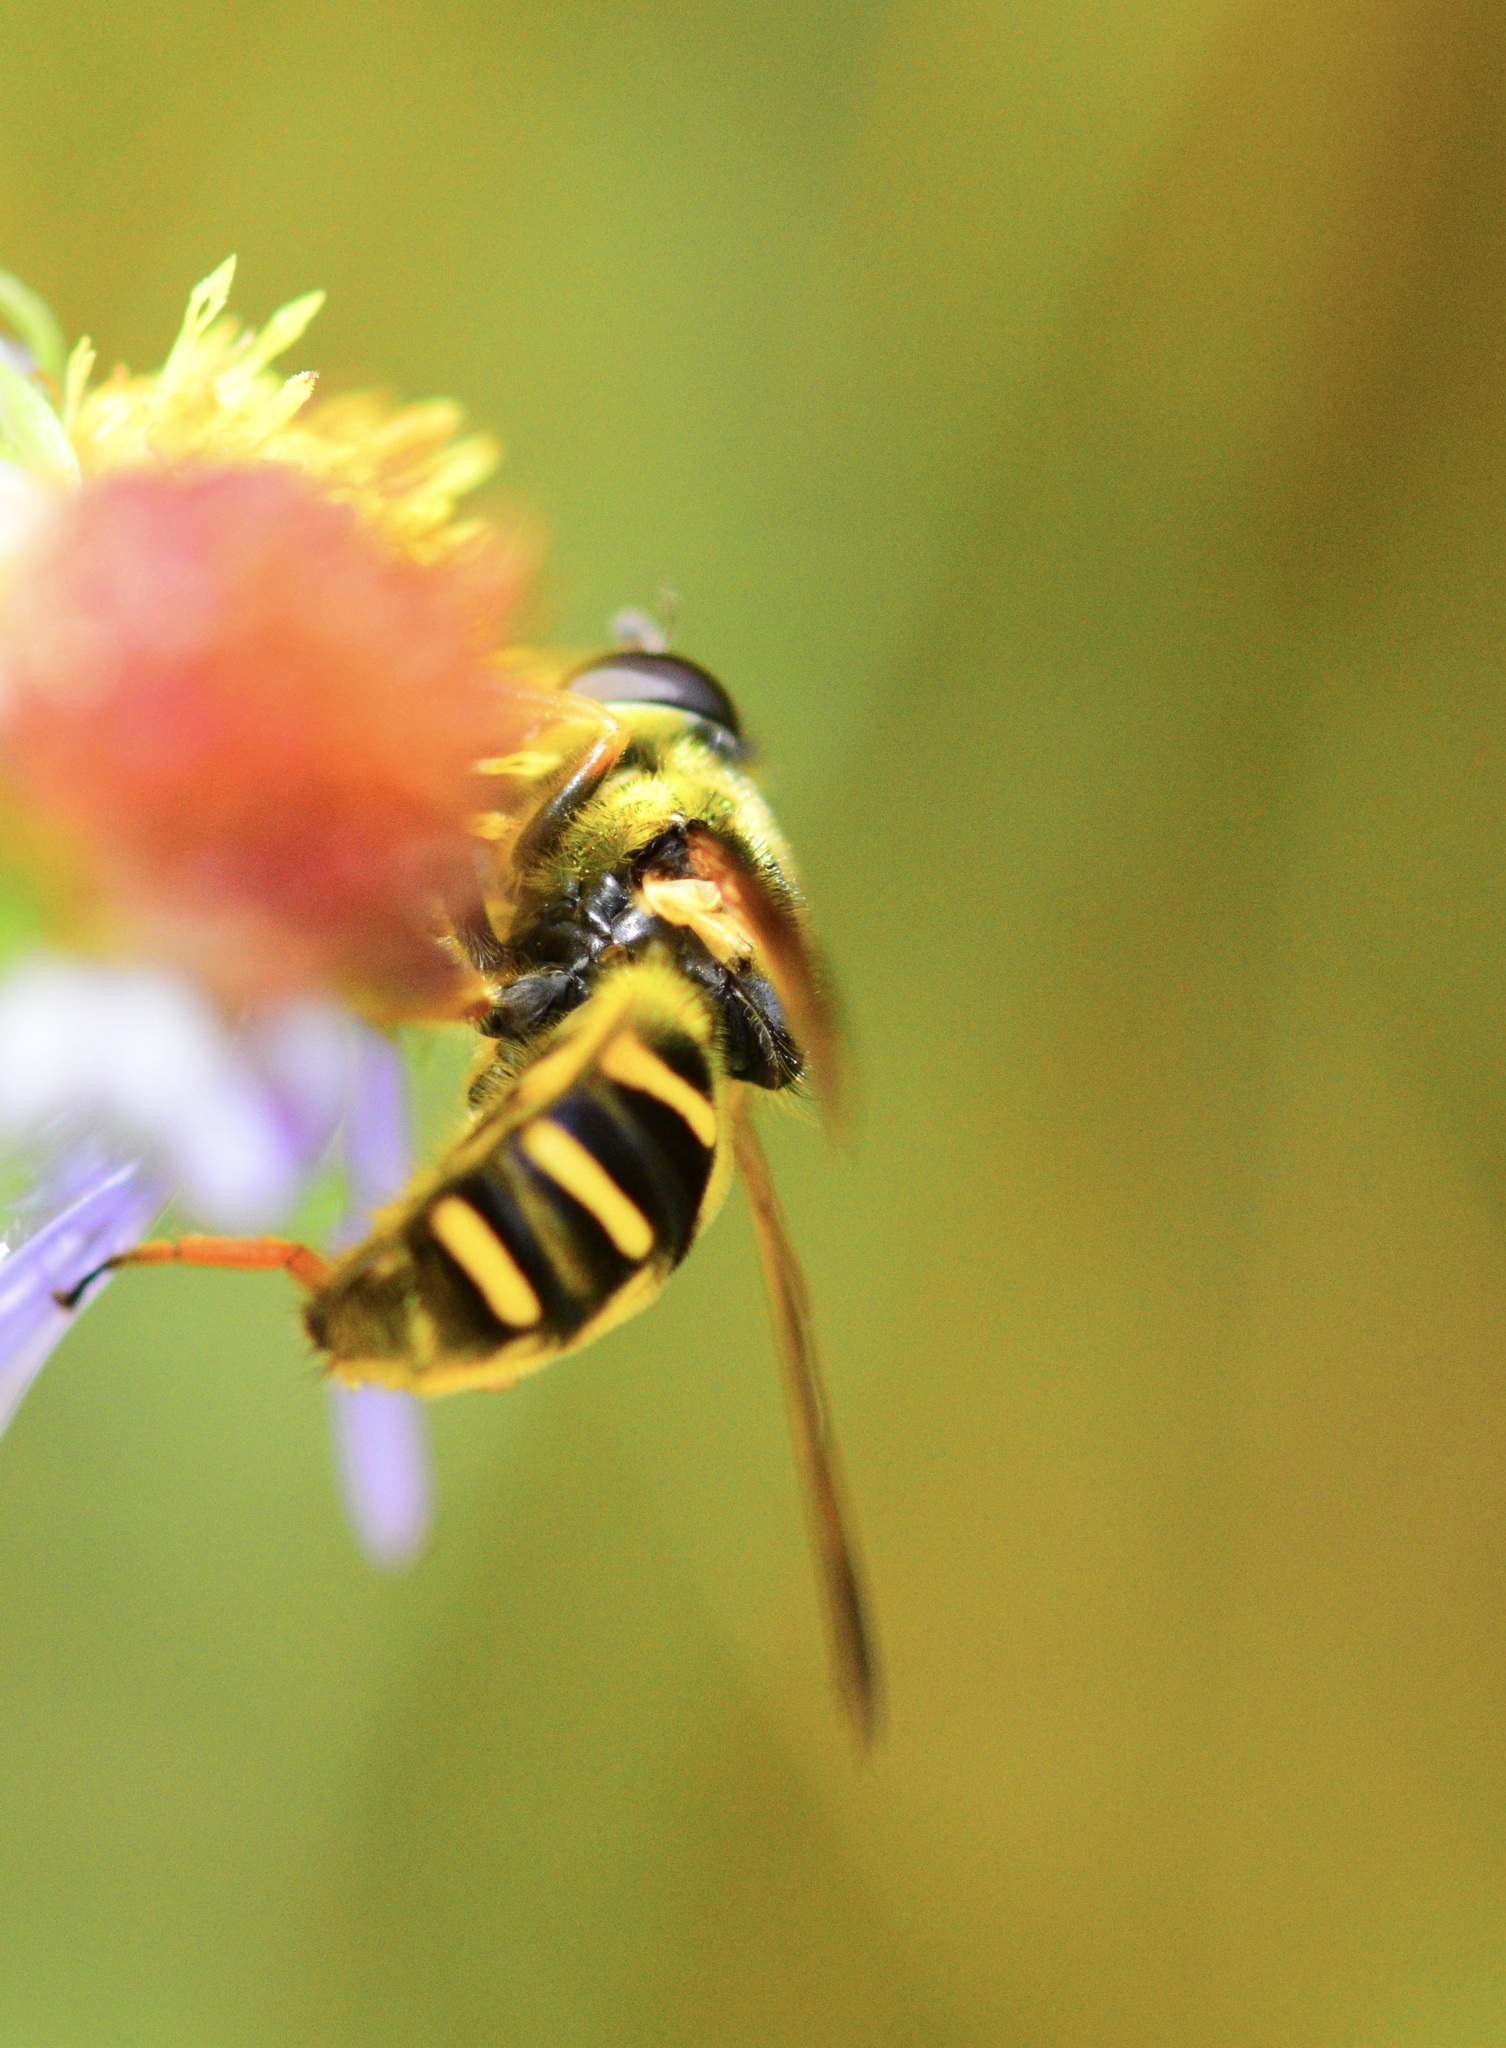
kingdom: Animalia
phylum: Arthropoda
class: Insecta
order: Diptera
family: Syrphidae
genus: Sericomyia
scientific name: Sericomyia chrysotoxoides
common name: Oblique-banded pond fly
